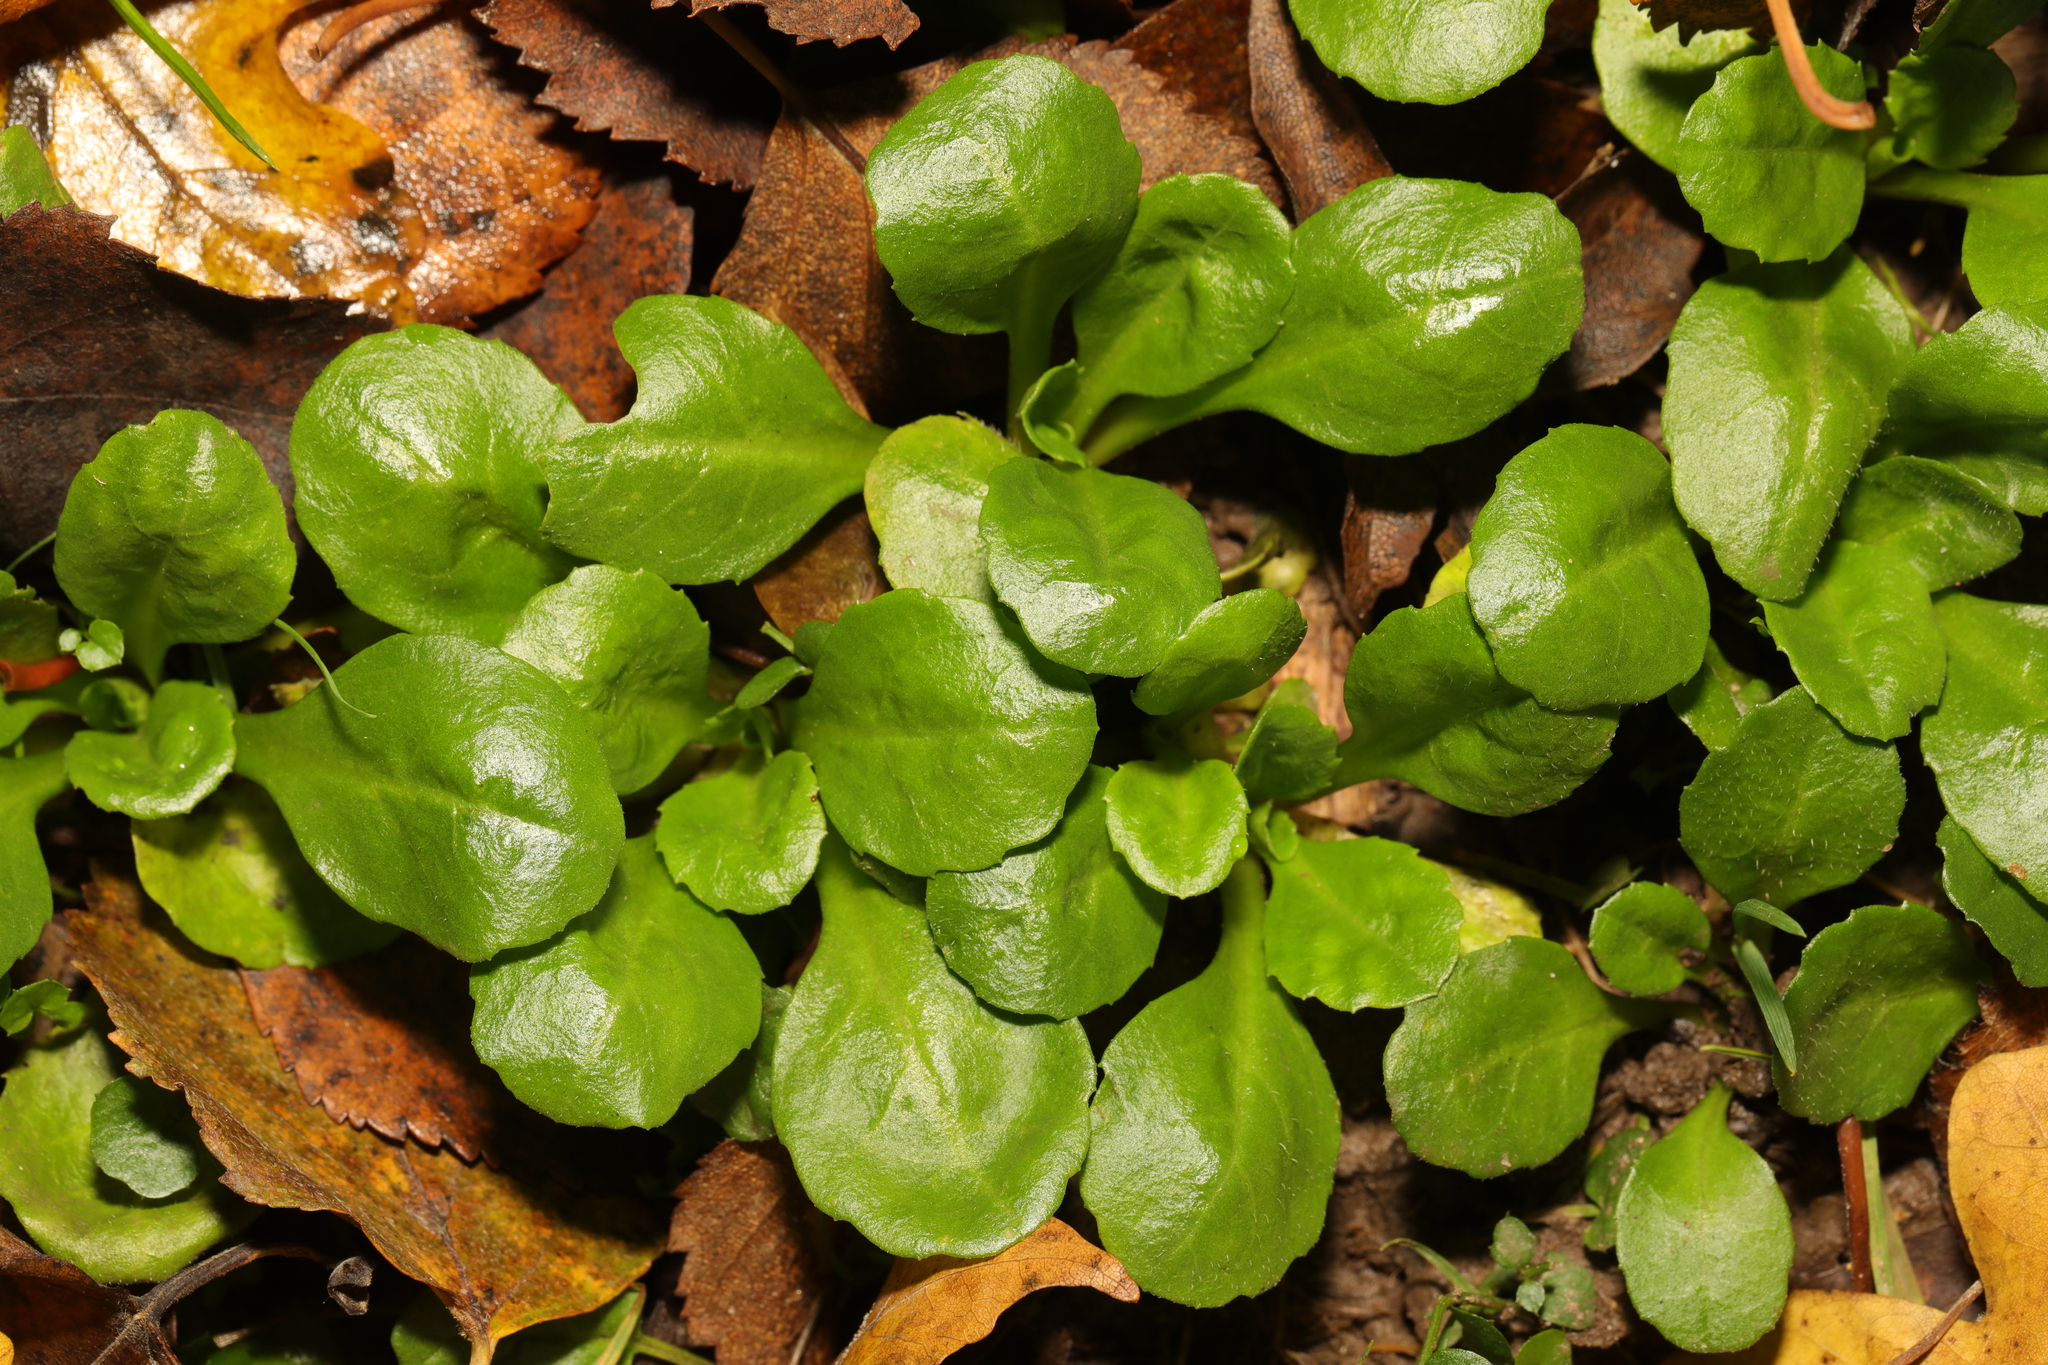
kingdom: Plantae
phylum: Tracheophyta
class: Magnoliopsida
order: Asterales
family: Asteraceae
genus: Bellis
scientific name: Bellis perennis
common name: Lawndaisy
